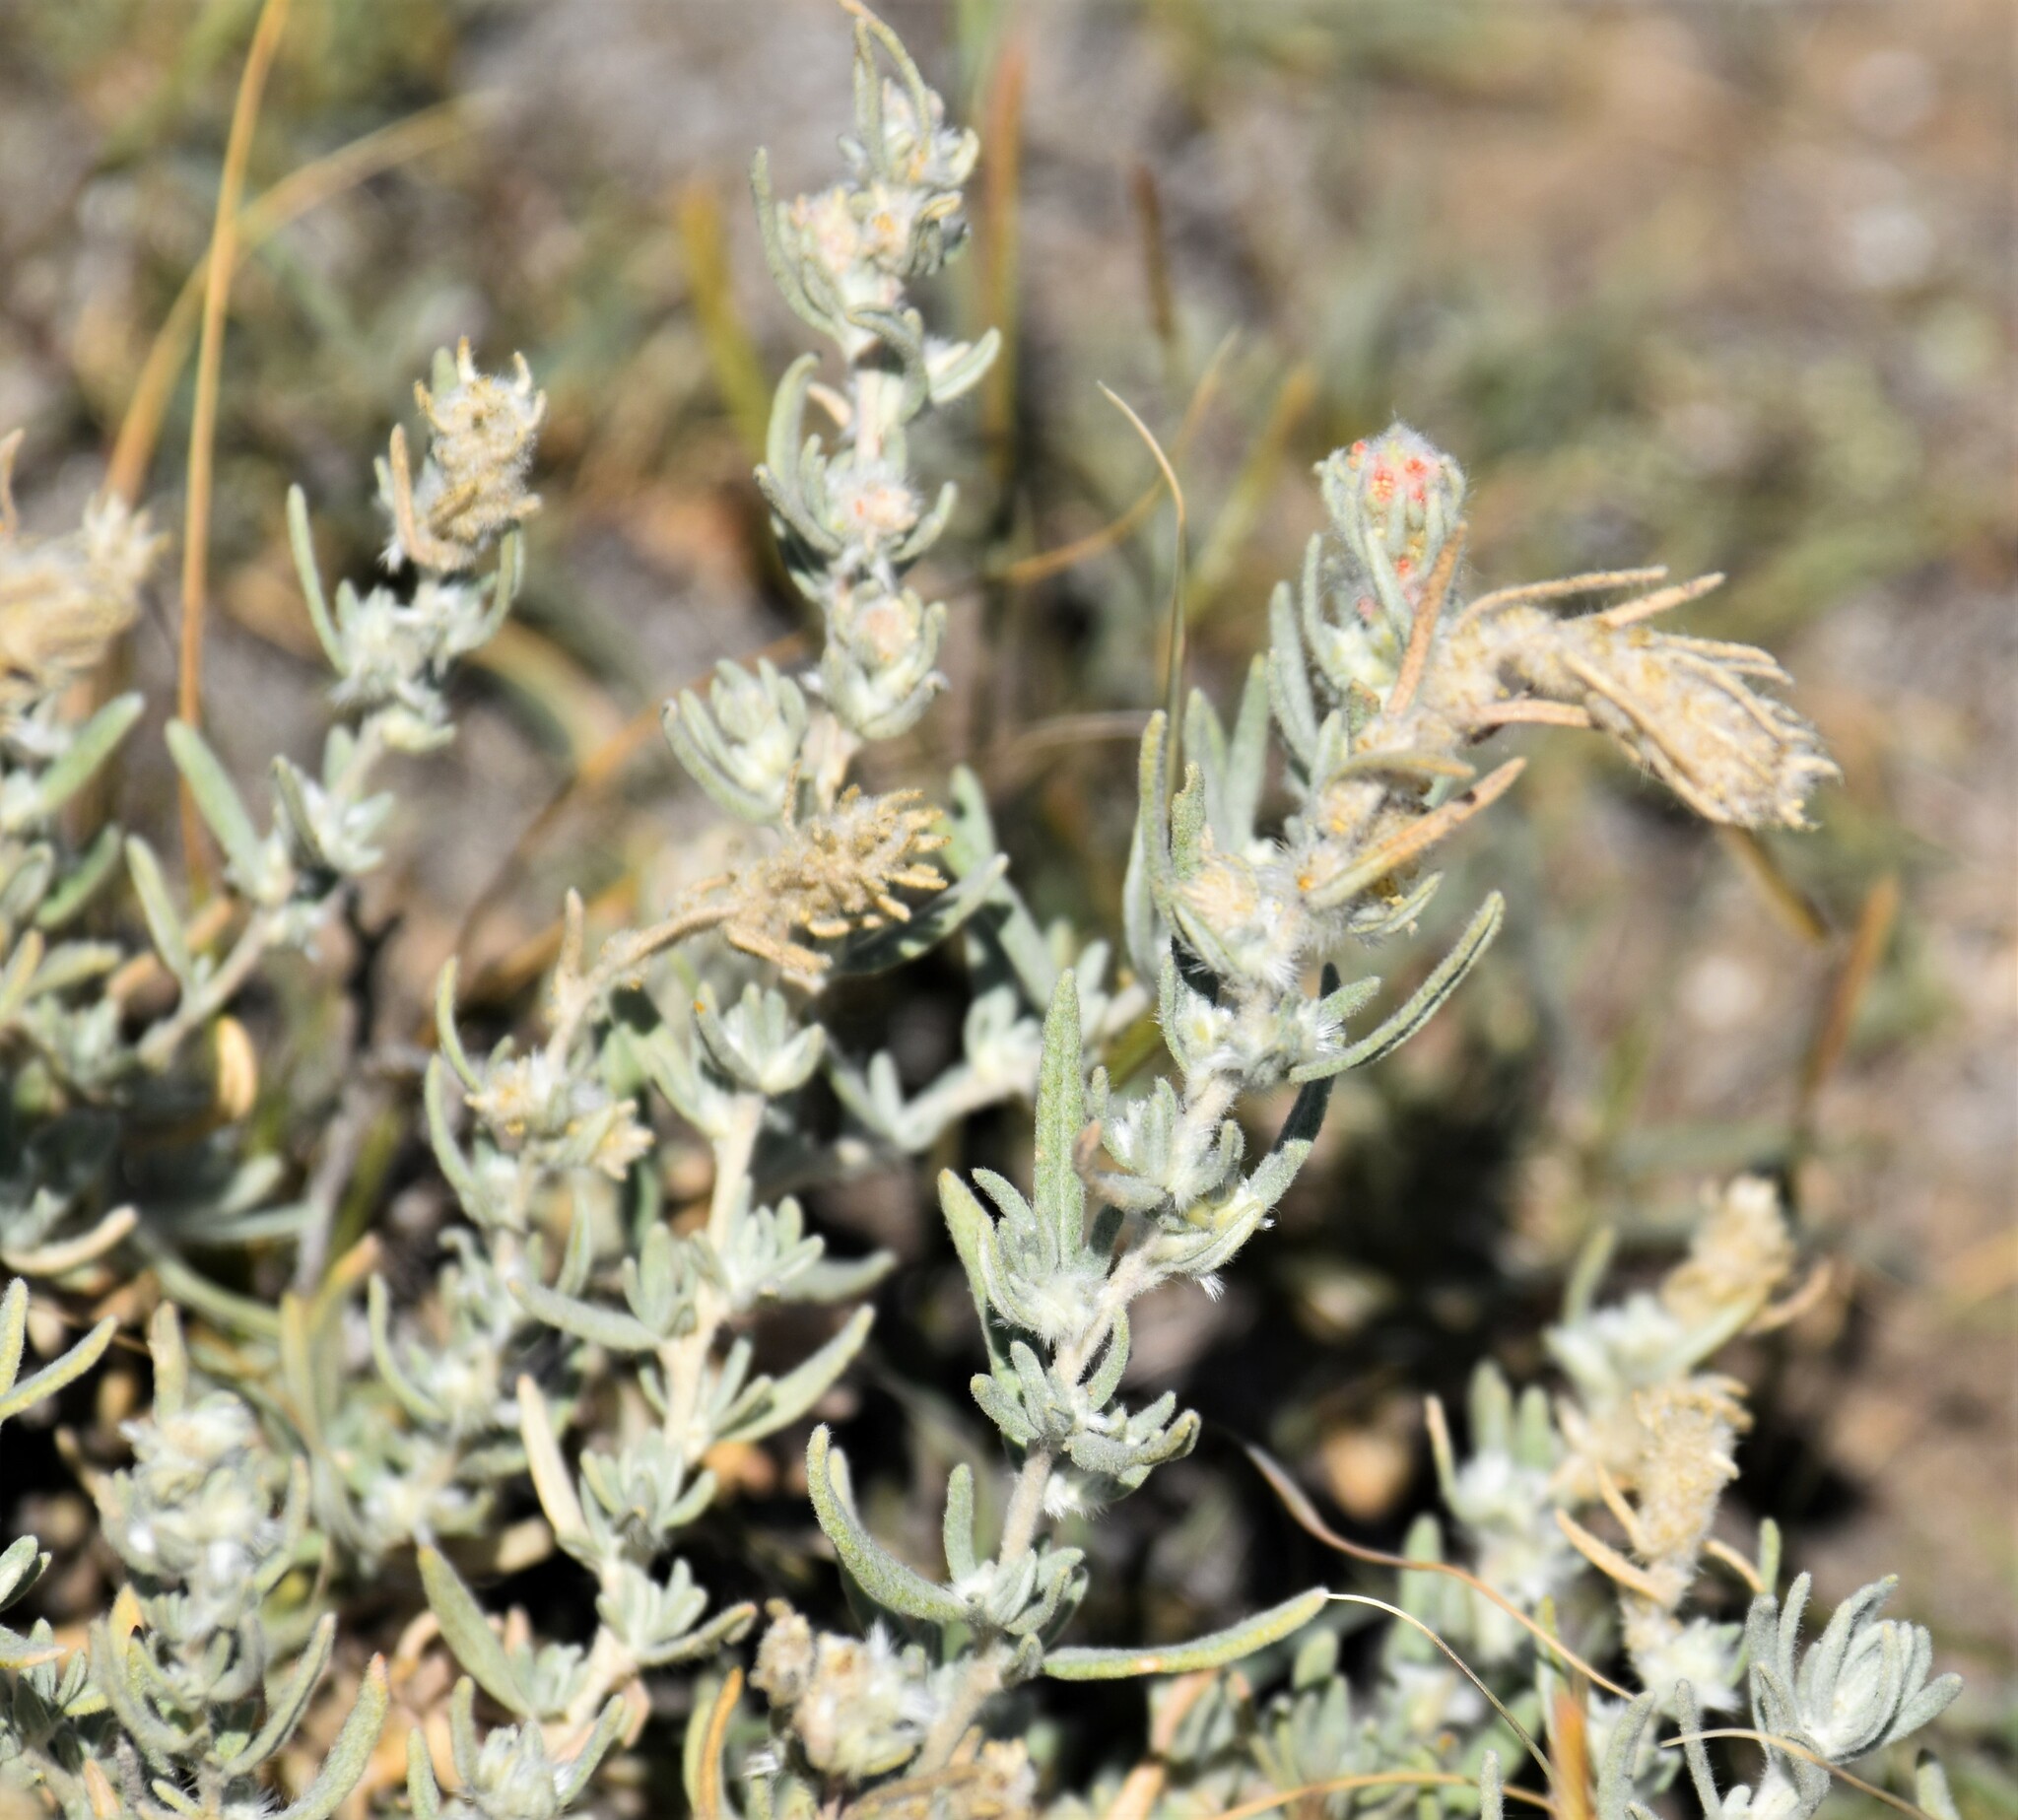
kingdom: Plantae
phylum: Tracheophyta
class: Magnoliopsida
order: Caryophyllales
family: Amaranthaceae
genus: Krascheninnikovia
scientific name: Krascheninnikovia lanata
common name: Winterfat
